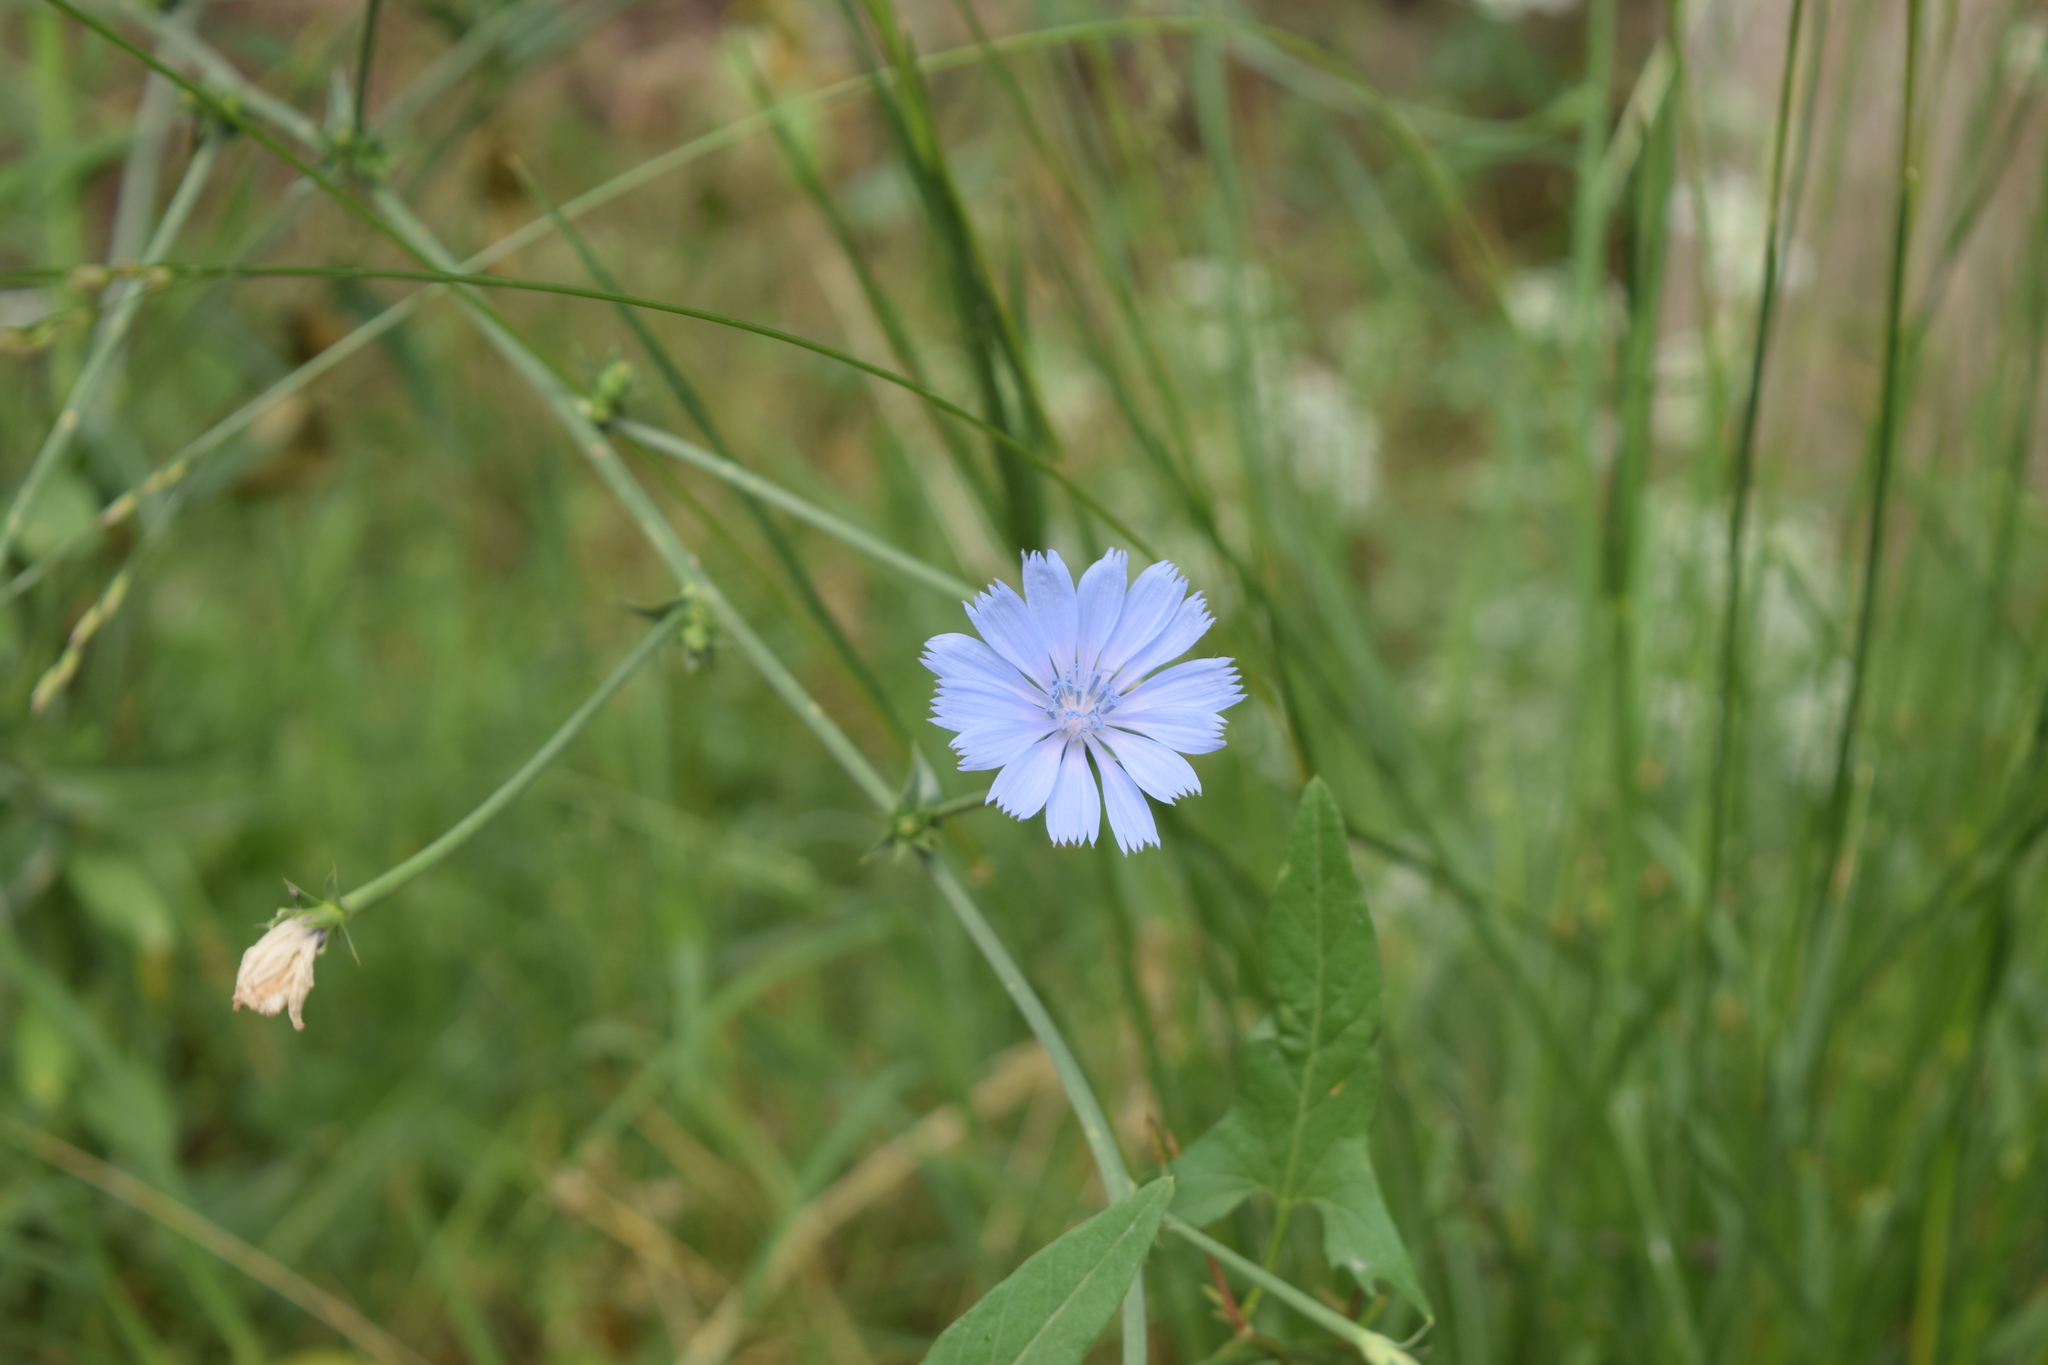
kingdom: Plantae
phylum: Tracheophyta
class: Magnoliopsida
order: Asterales
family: Asteraceae
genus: Cichorium
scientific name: Cichorium intybus
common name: Chicory
